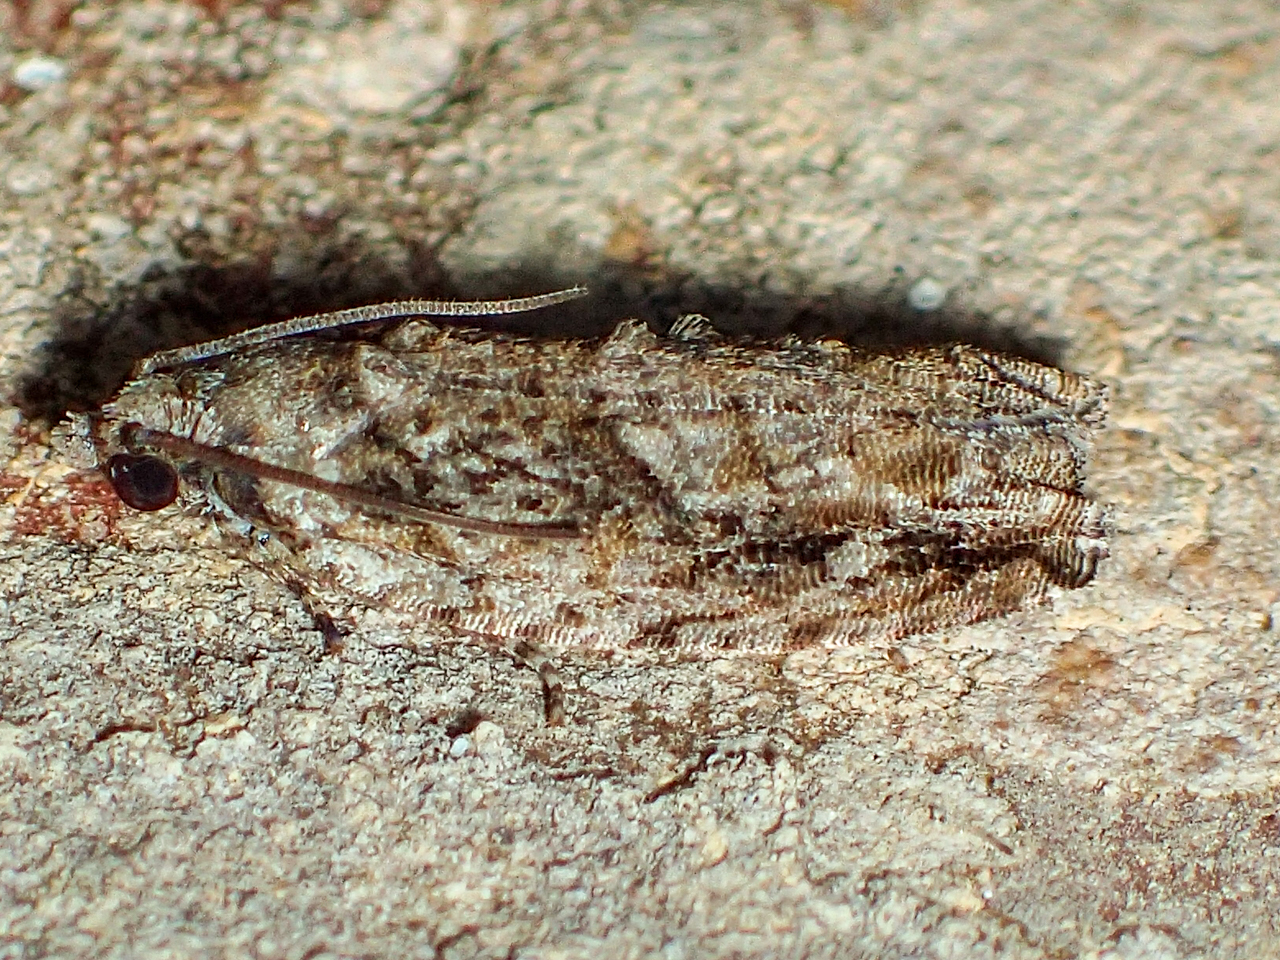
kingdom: Animalia
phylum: Arthropoda
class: Insecta
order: Lepidoptera
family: Tortricidae
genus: Gretchena
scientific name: Gretchena bolliana
